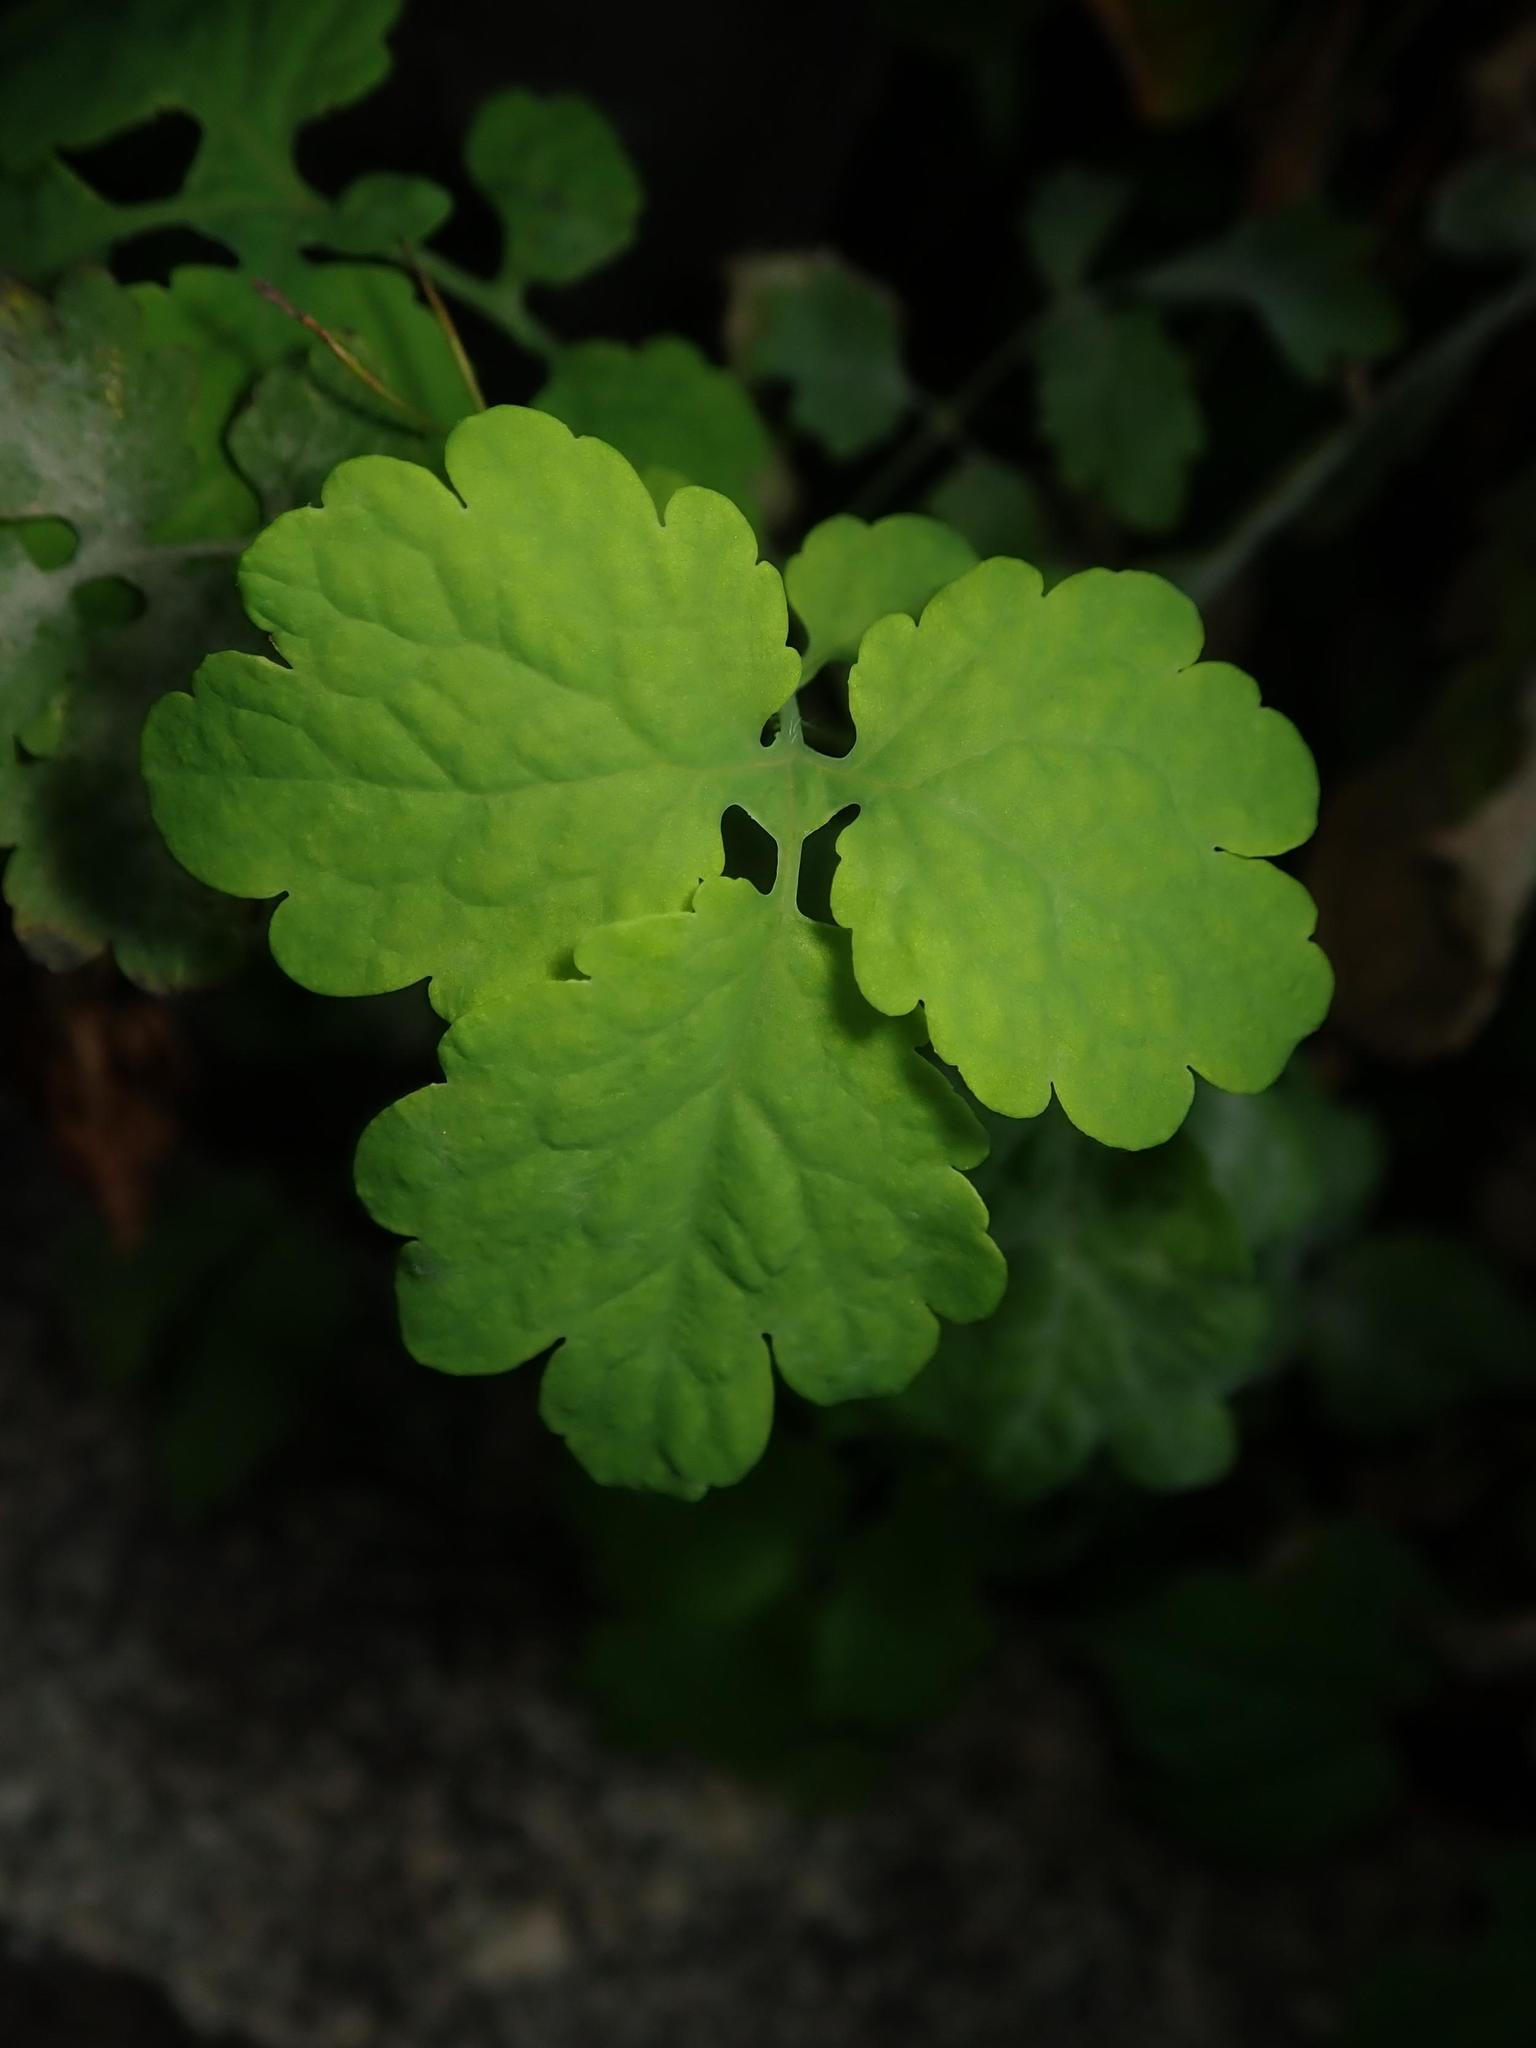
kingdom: Plantae
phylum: Tracheophyta
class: Magnoliopsida
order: Ranunculales
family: Papaveraceae
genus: Chelidonium
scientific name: Chelidonium majus
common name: Greater celandine
